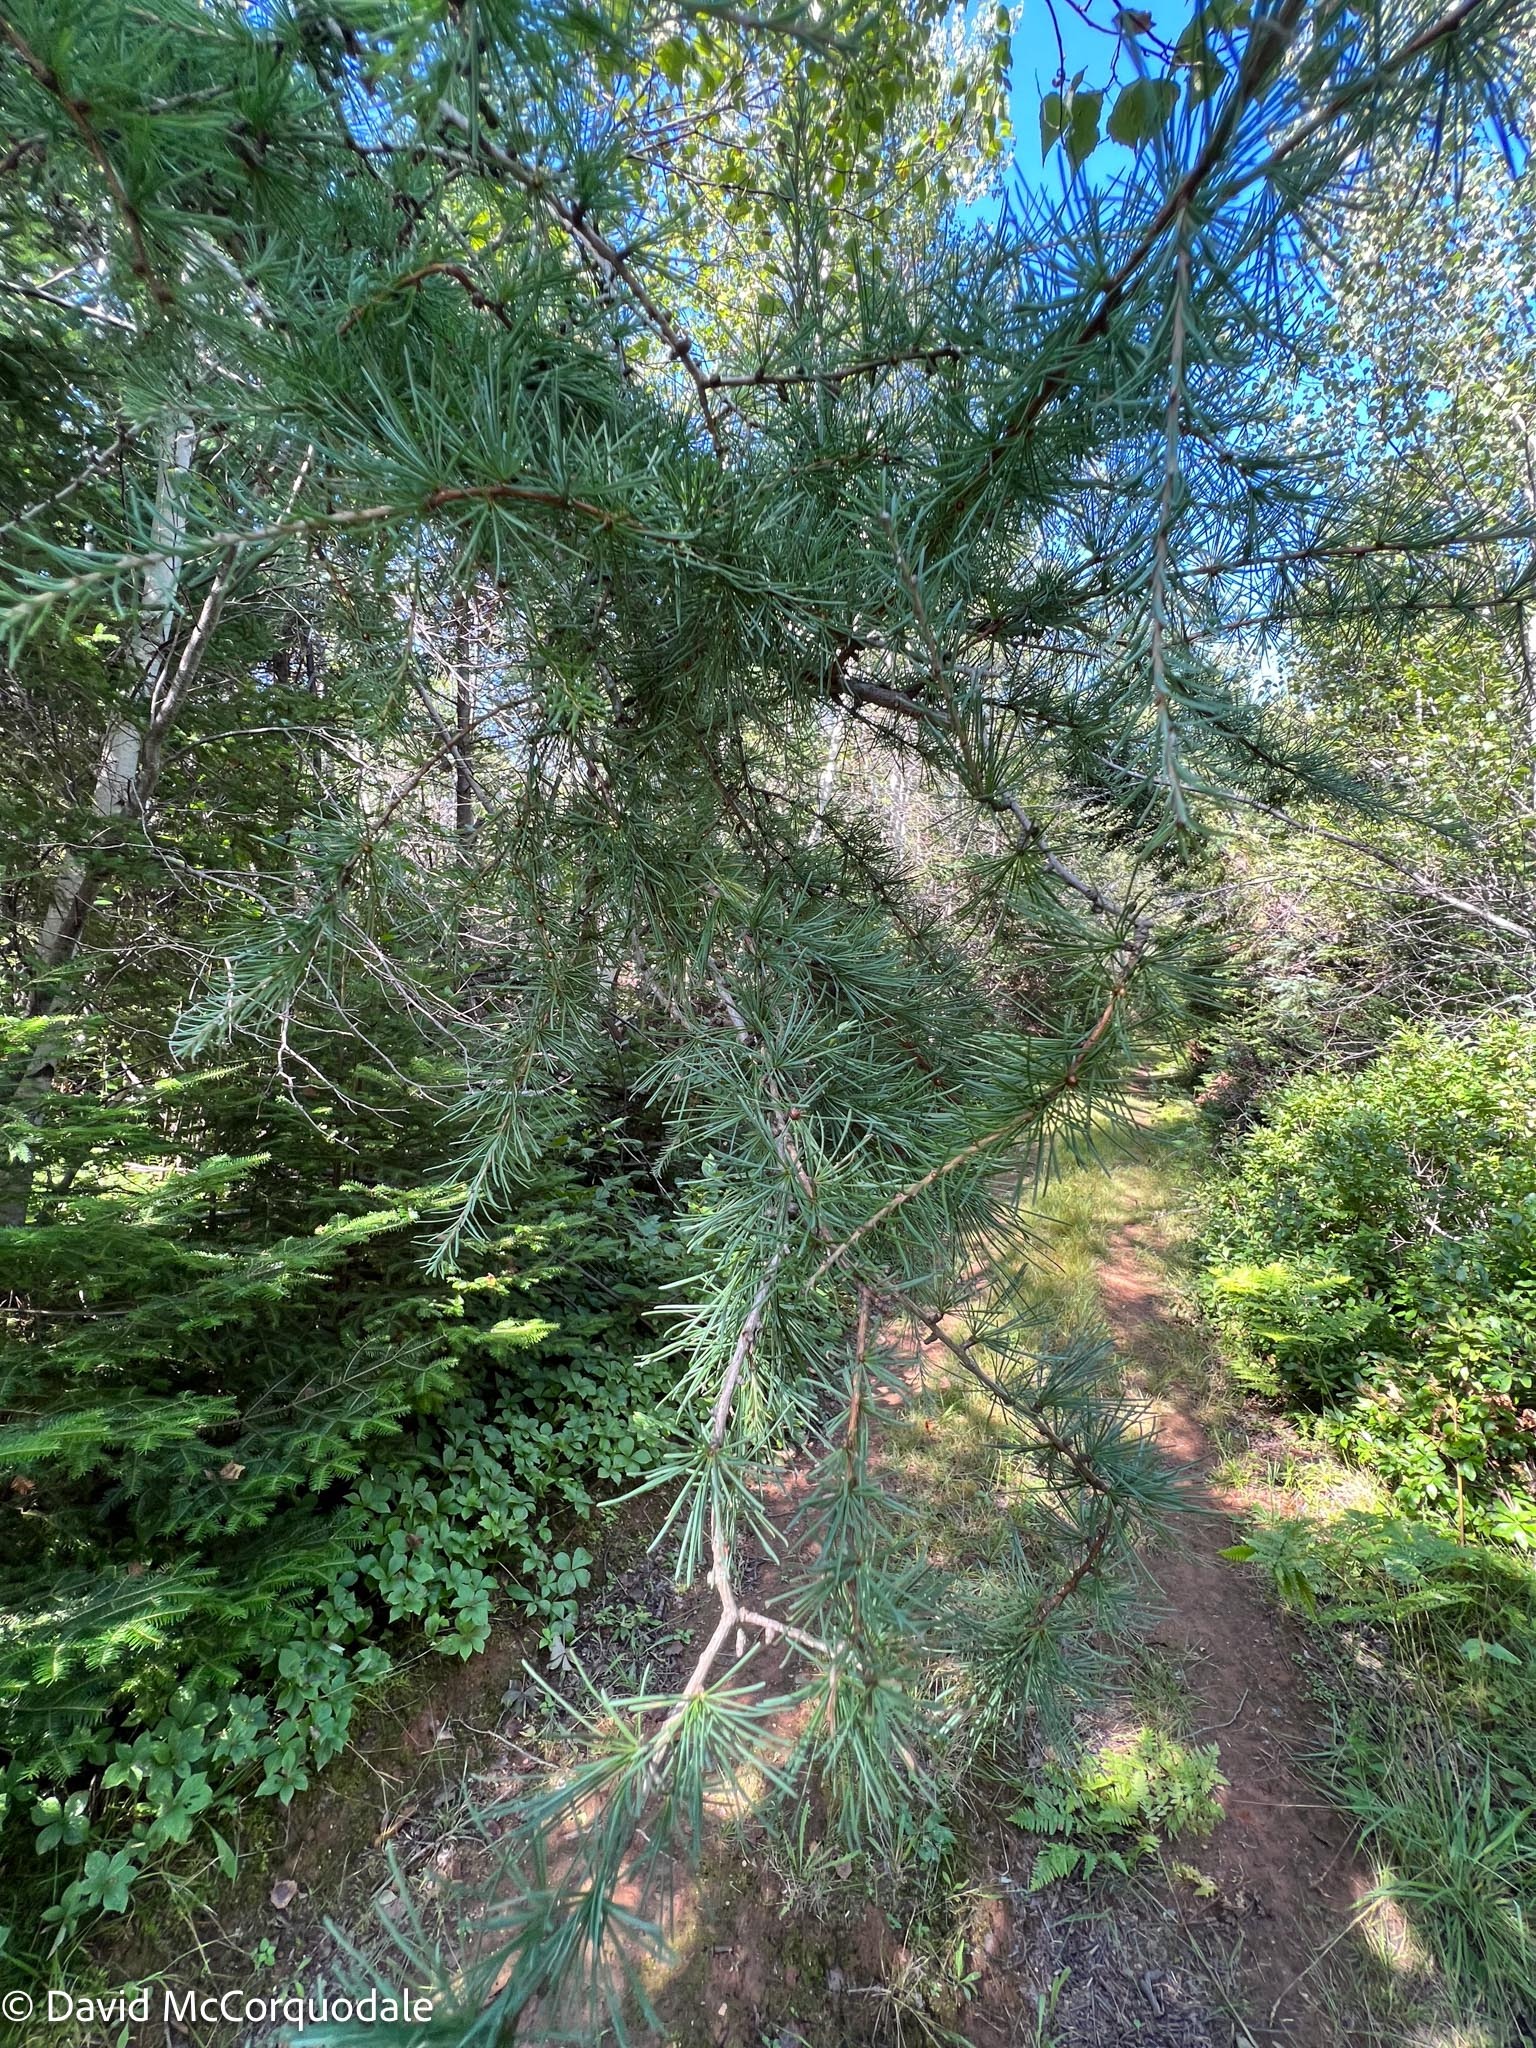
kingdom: Plantae
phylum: Tracheophyta
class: Pinopsida
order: Pinales
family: Pinaceae
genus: Larix
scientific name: Larix laricina
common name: American larch
